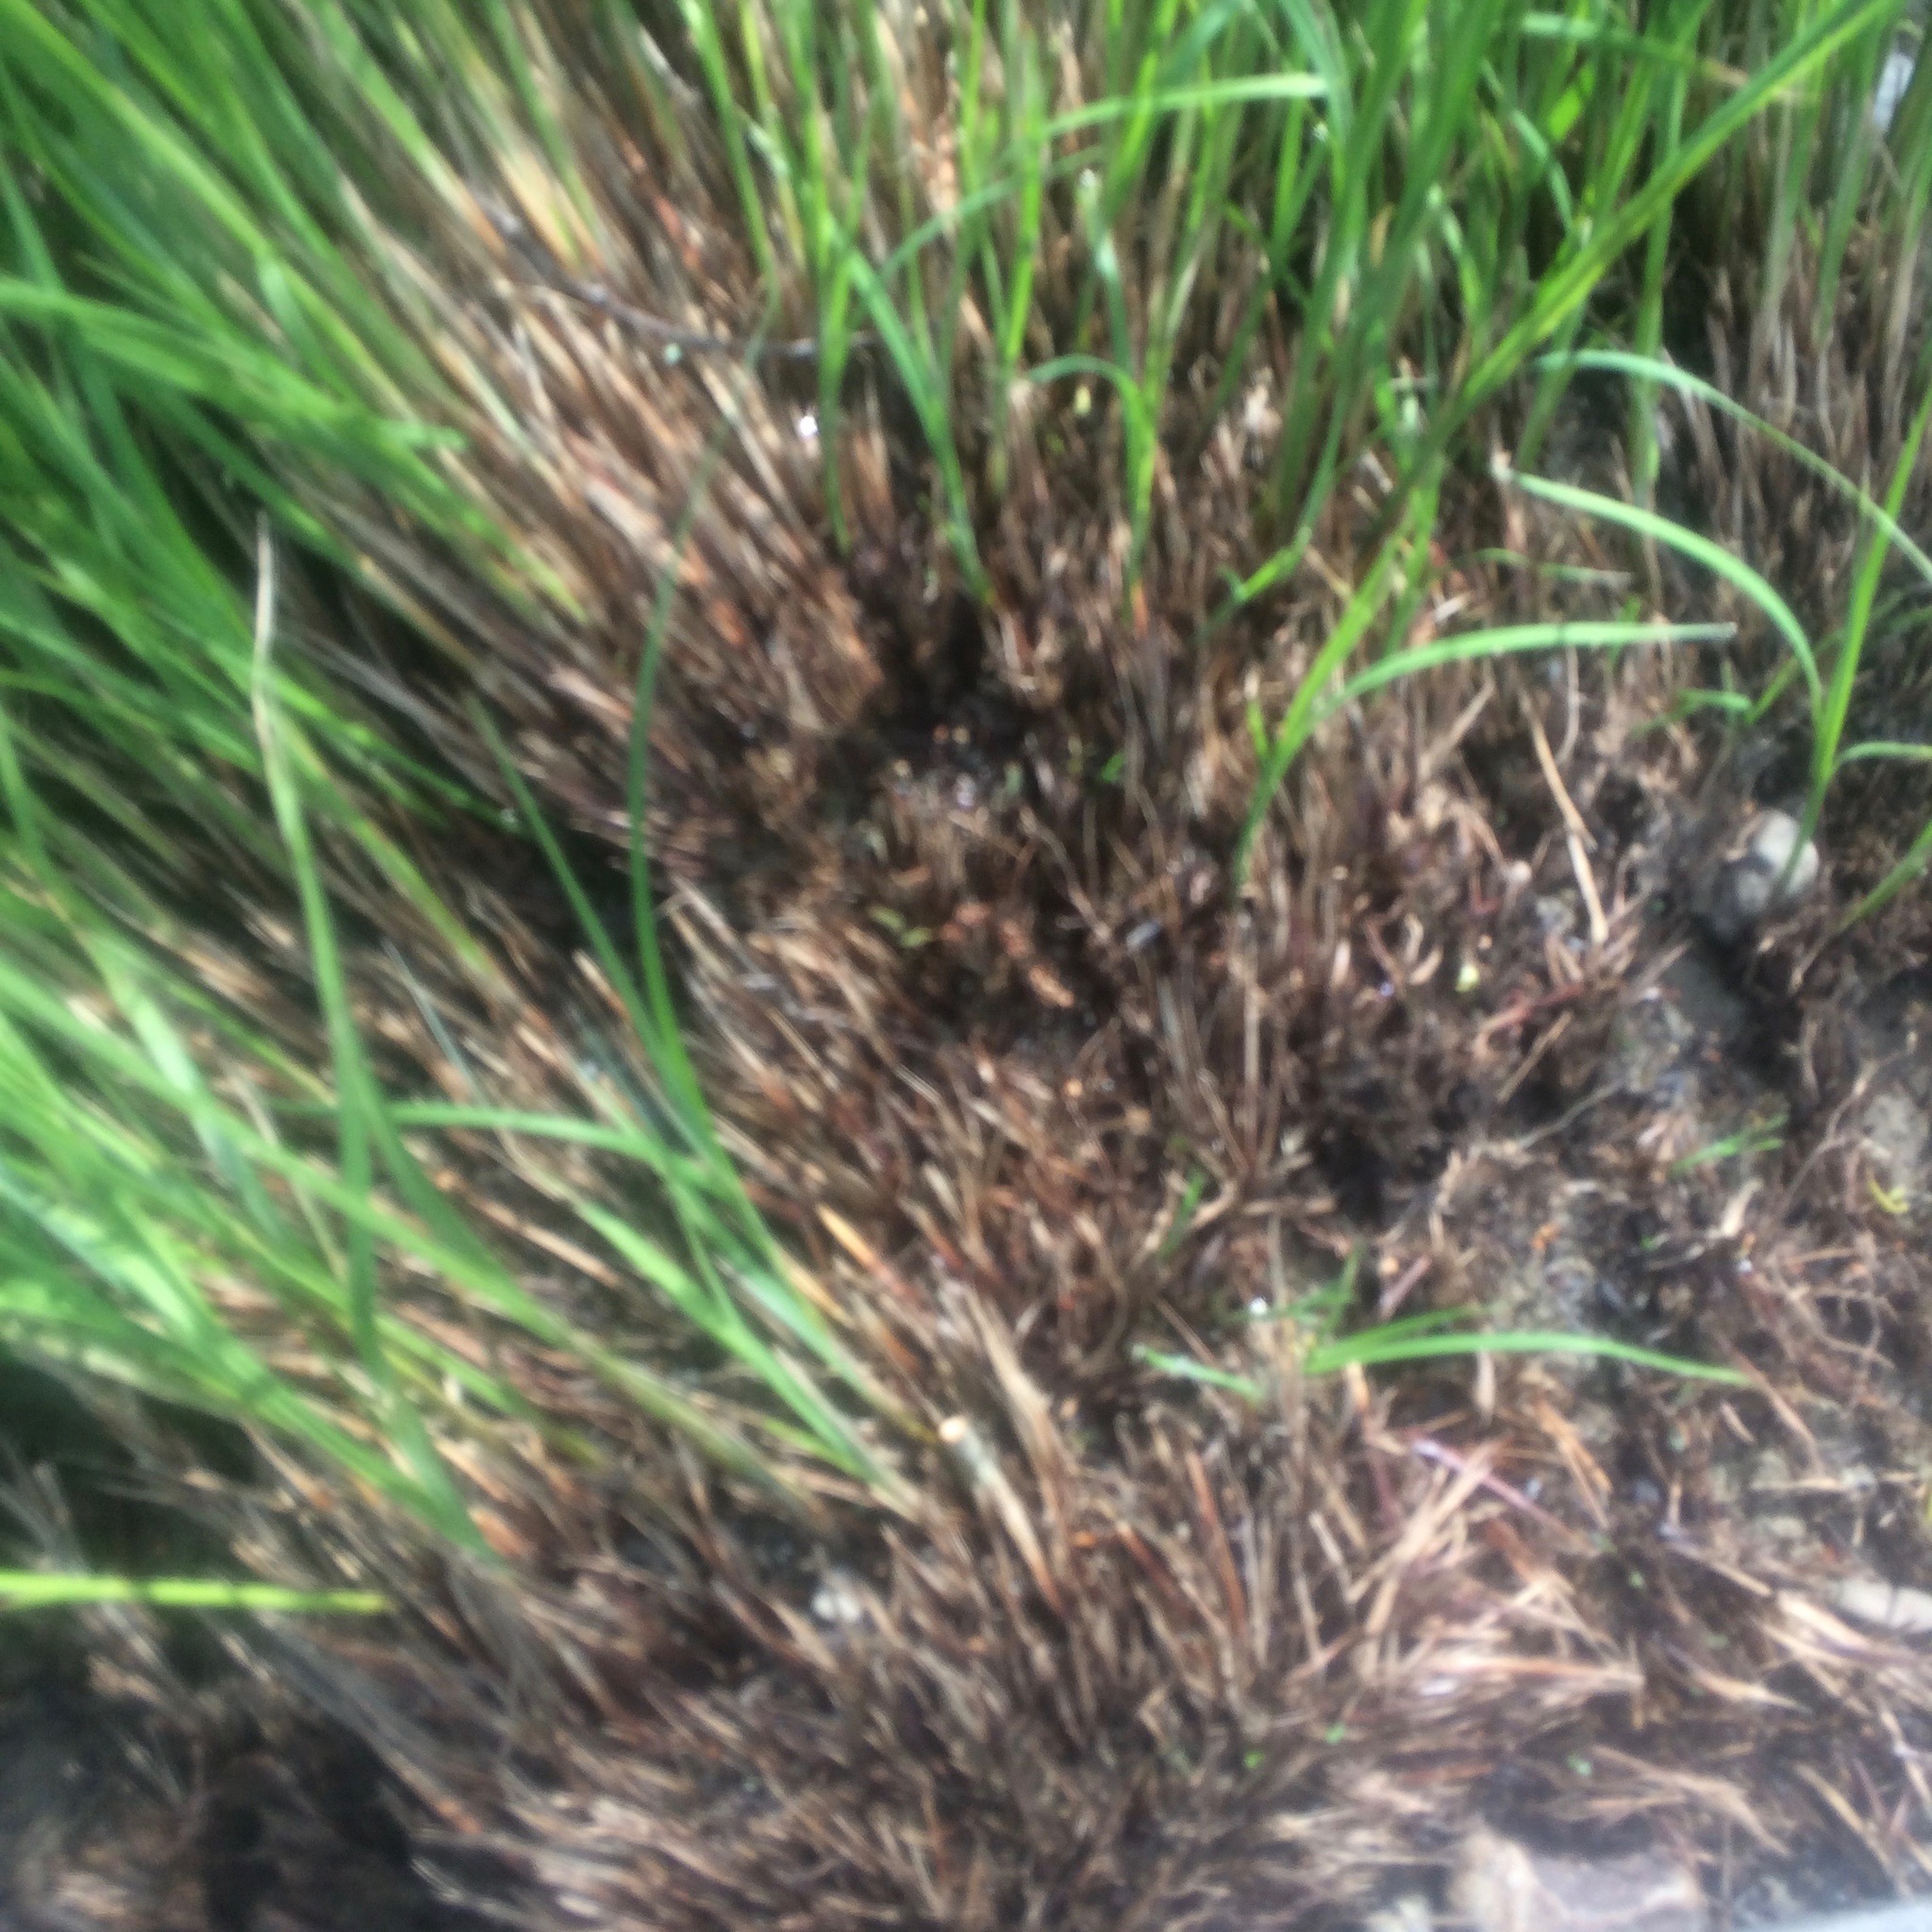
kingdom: Plantae
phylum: Tracheophyta
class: Liliopsida
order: Poales
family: Cyperaceae
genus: Carex
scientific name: Carex nudata
